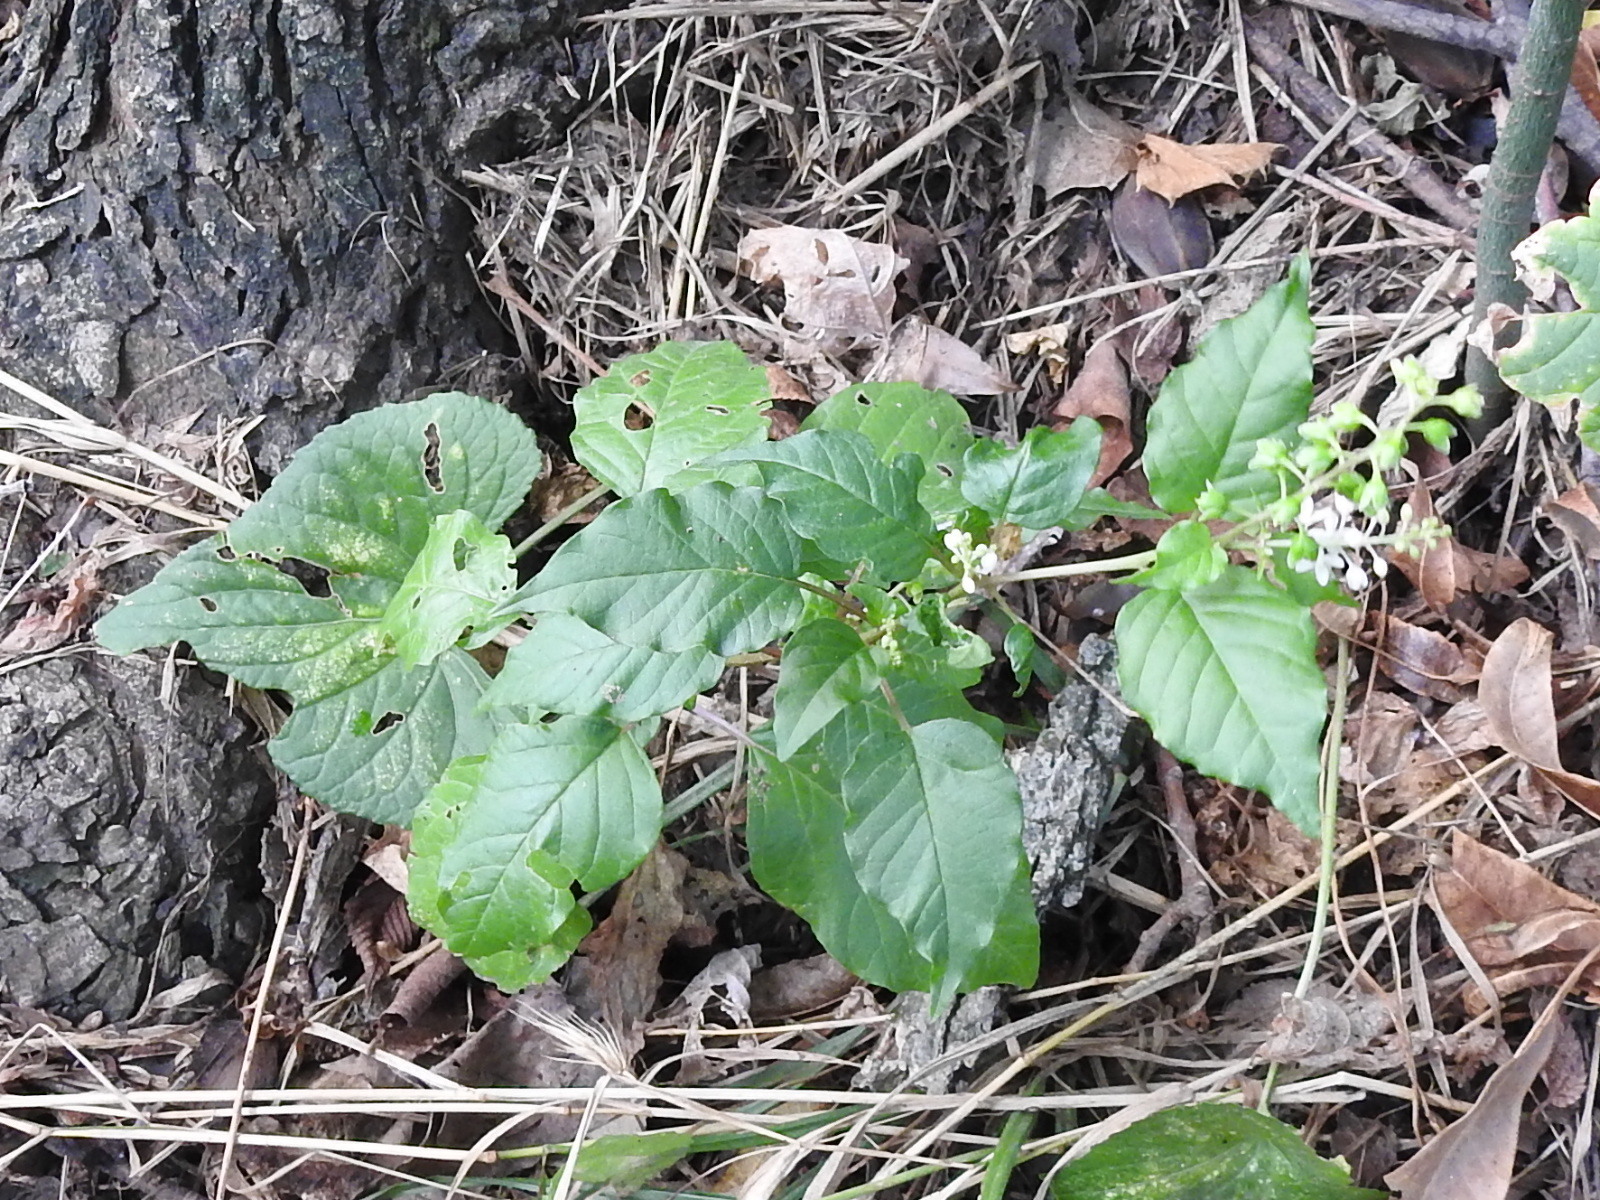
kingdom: Plantae
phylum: Tracheophyta
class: Magnoliopsida
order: Caryophyllales
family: Phytolaccaceae
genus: Rivina
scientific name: Rivina humilis
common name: Rougeplant
